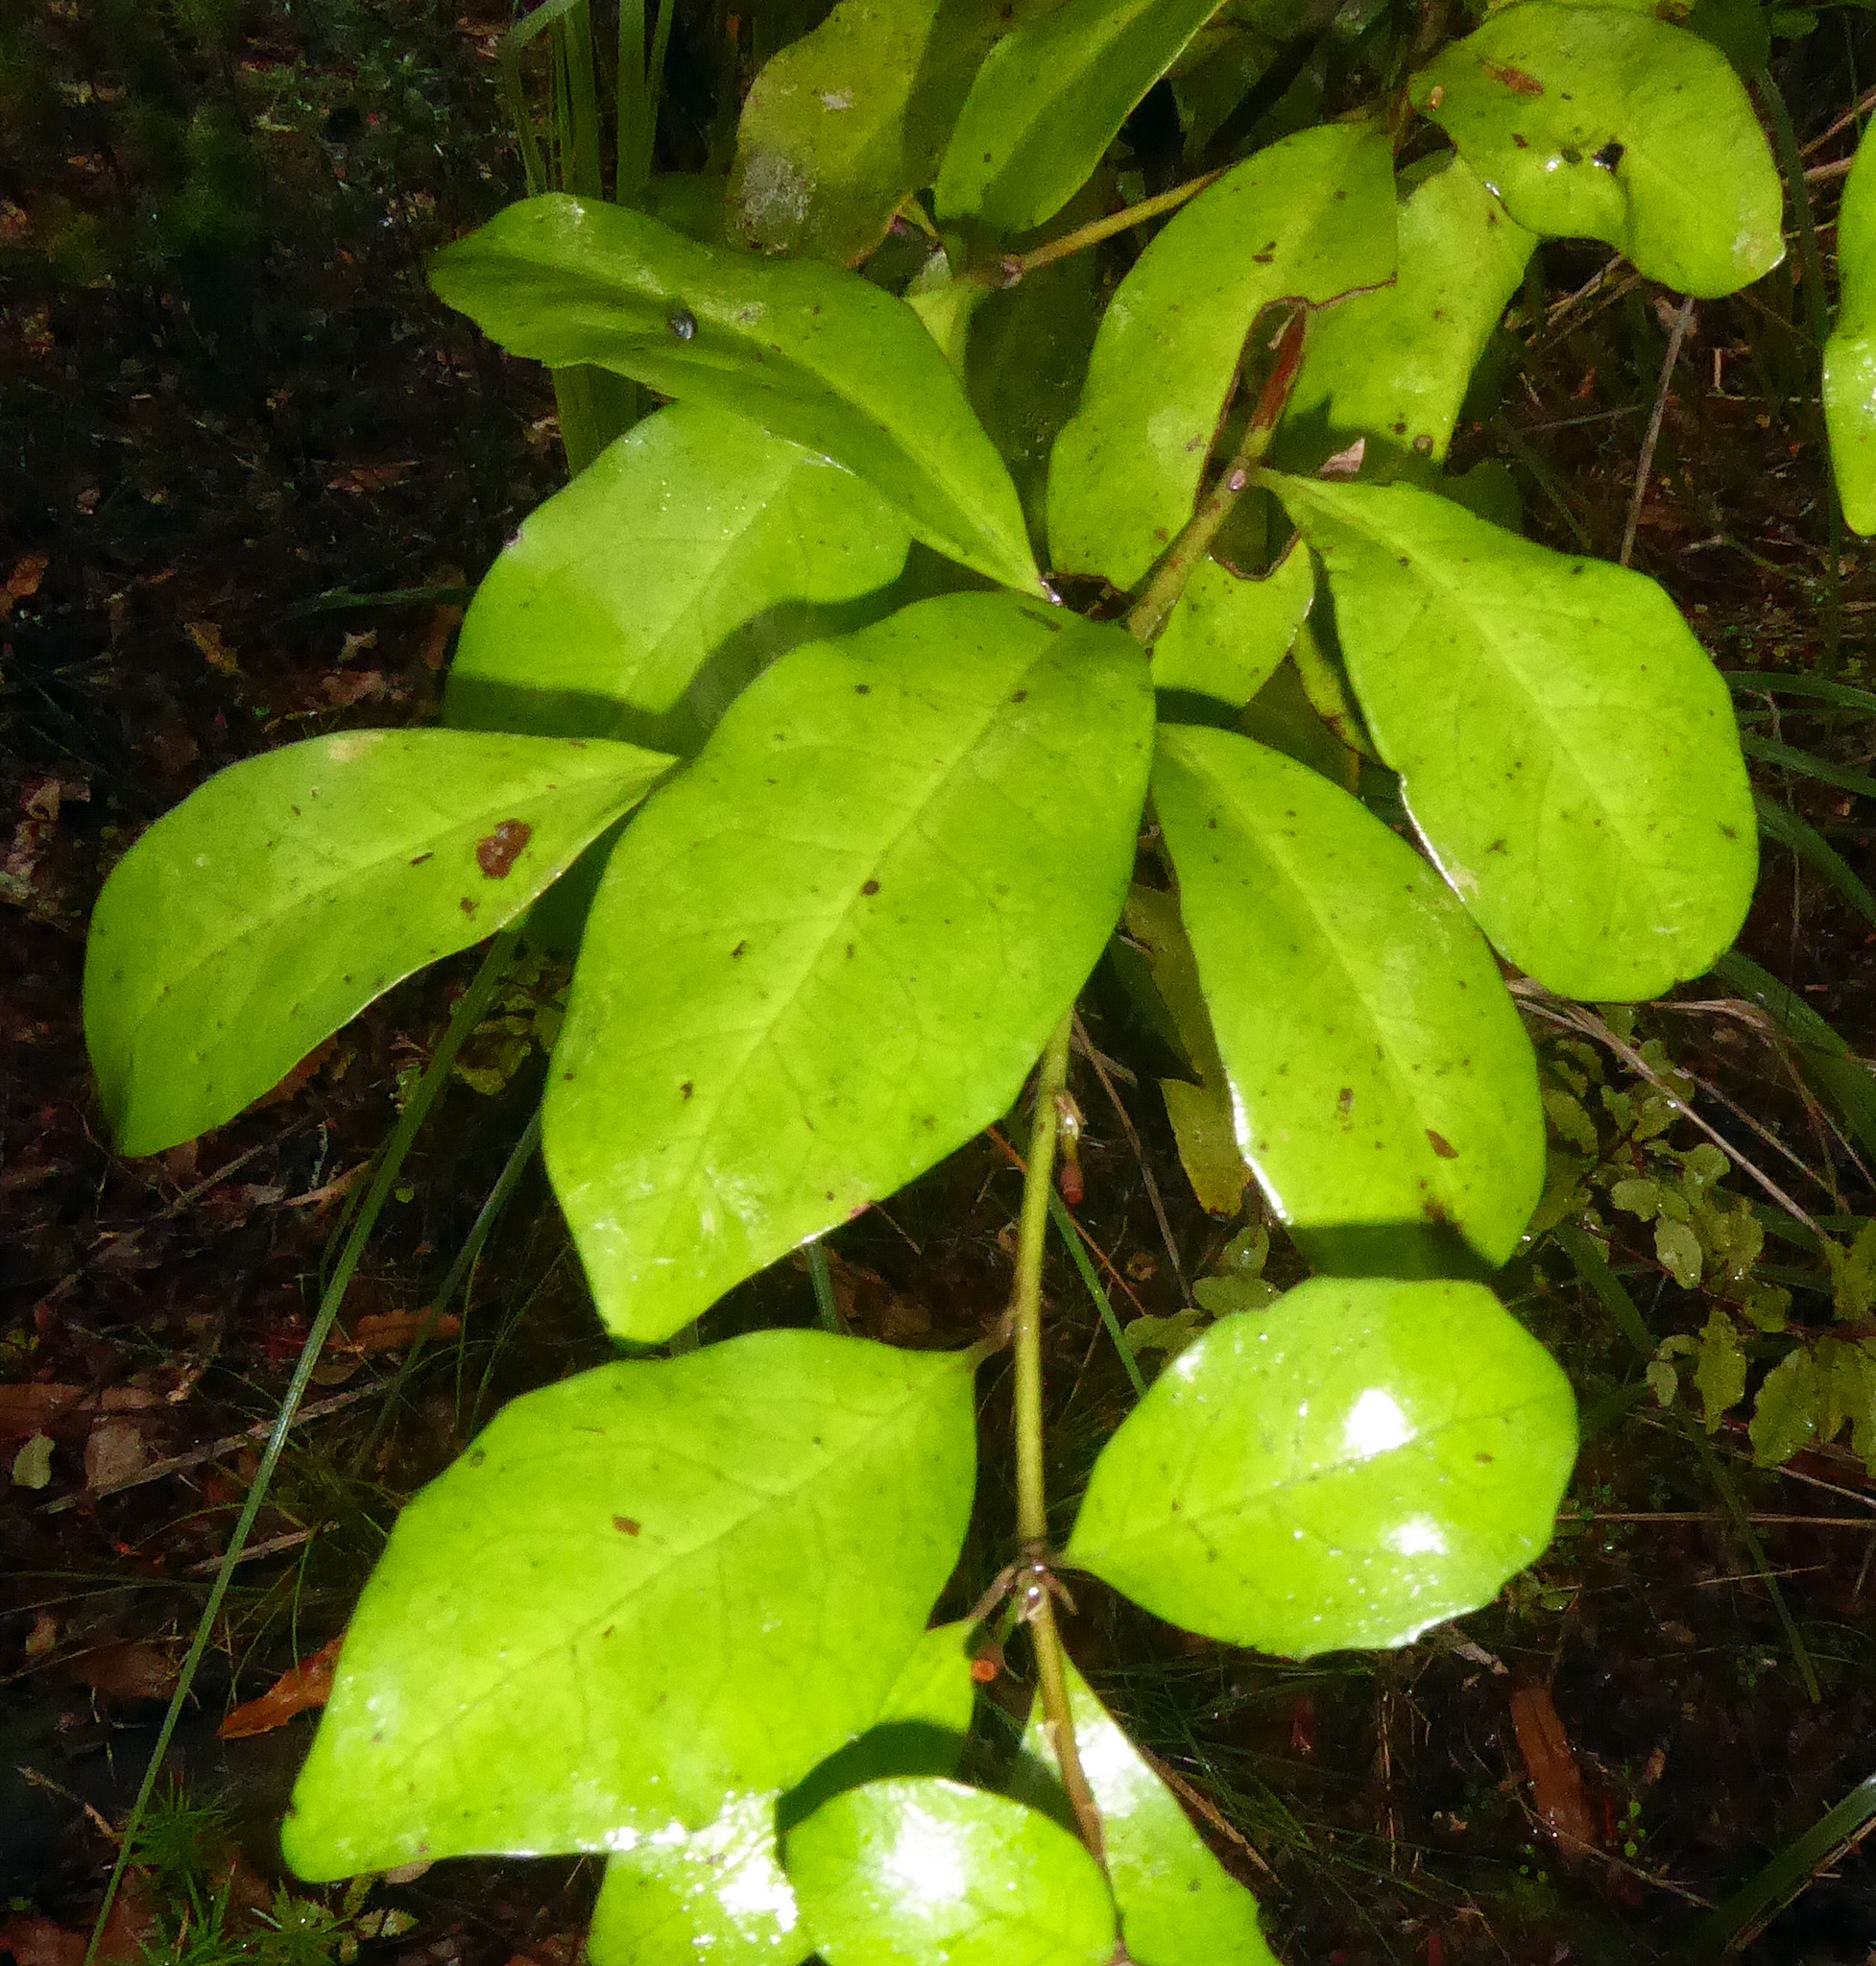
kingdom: Plantae
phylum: Tracheophyta
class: Magnoliopsida
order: Asterales
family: Alseuosmiaceae
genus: Alseuosmia
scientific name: Alseuosmia quercifolia
